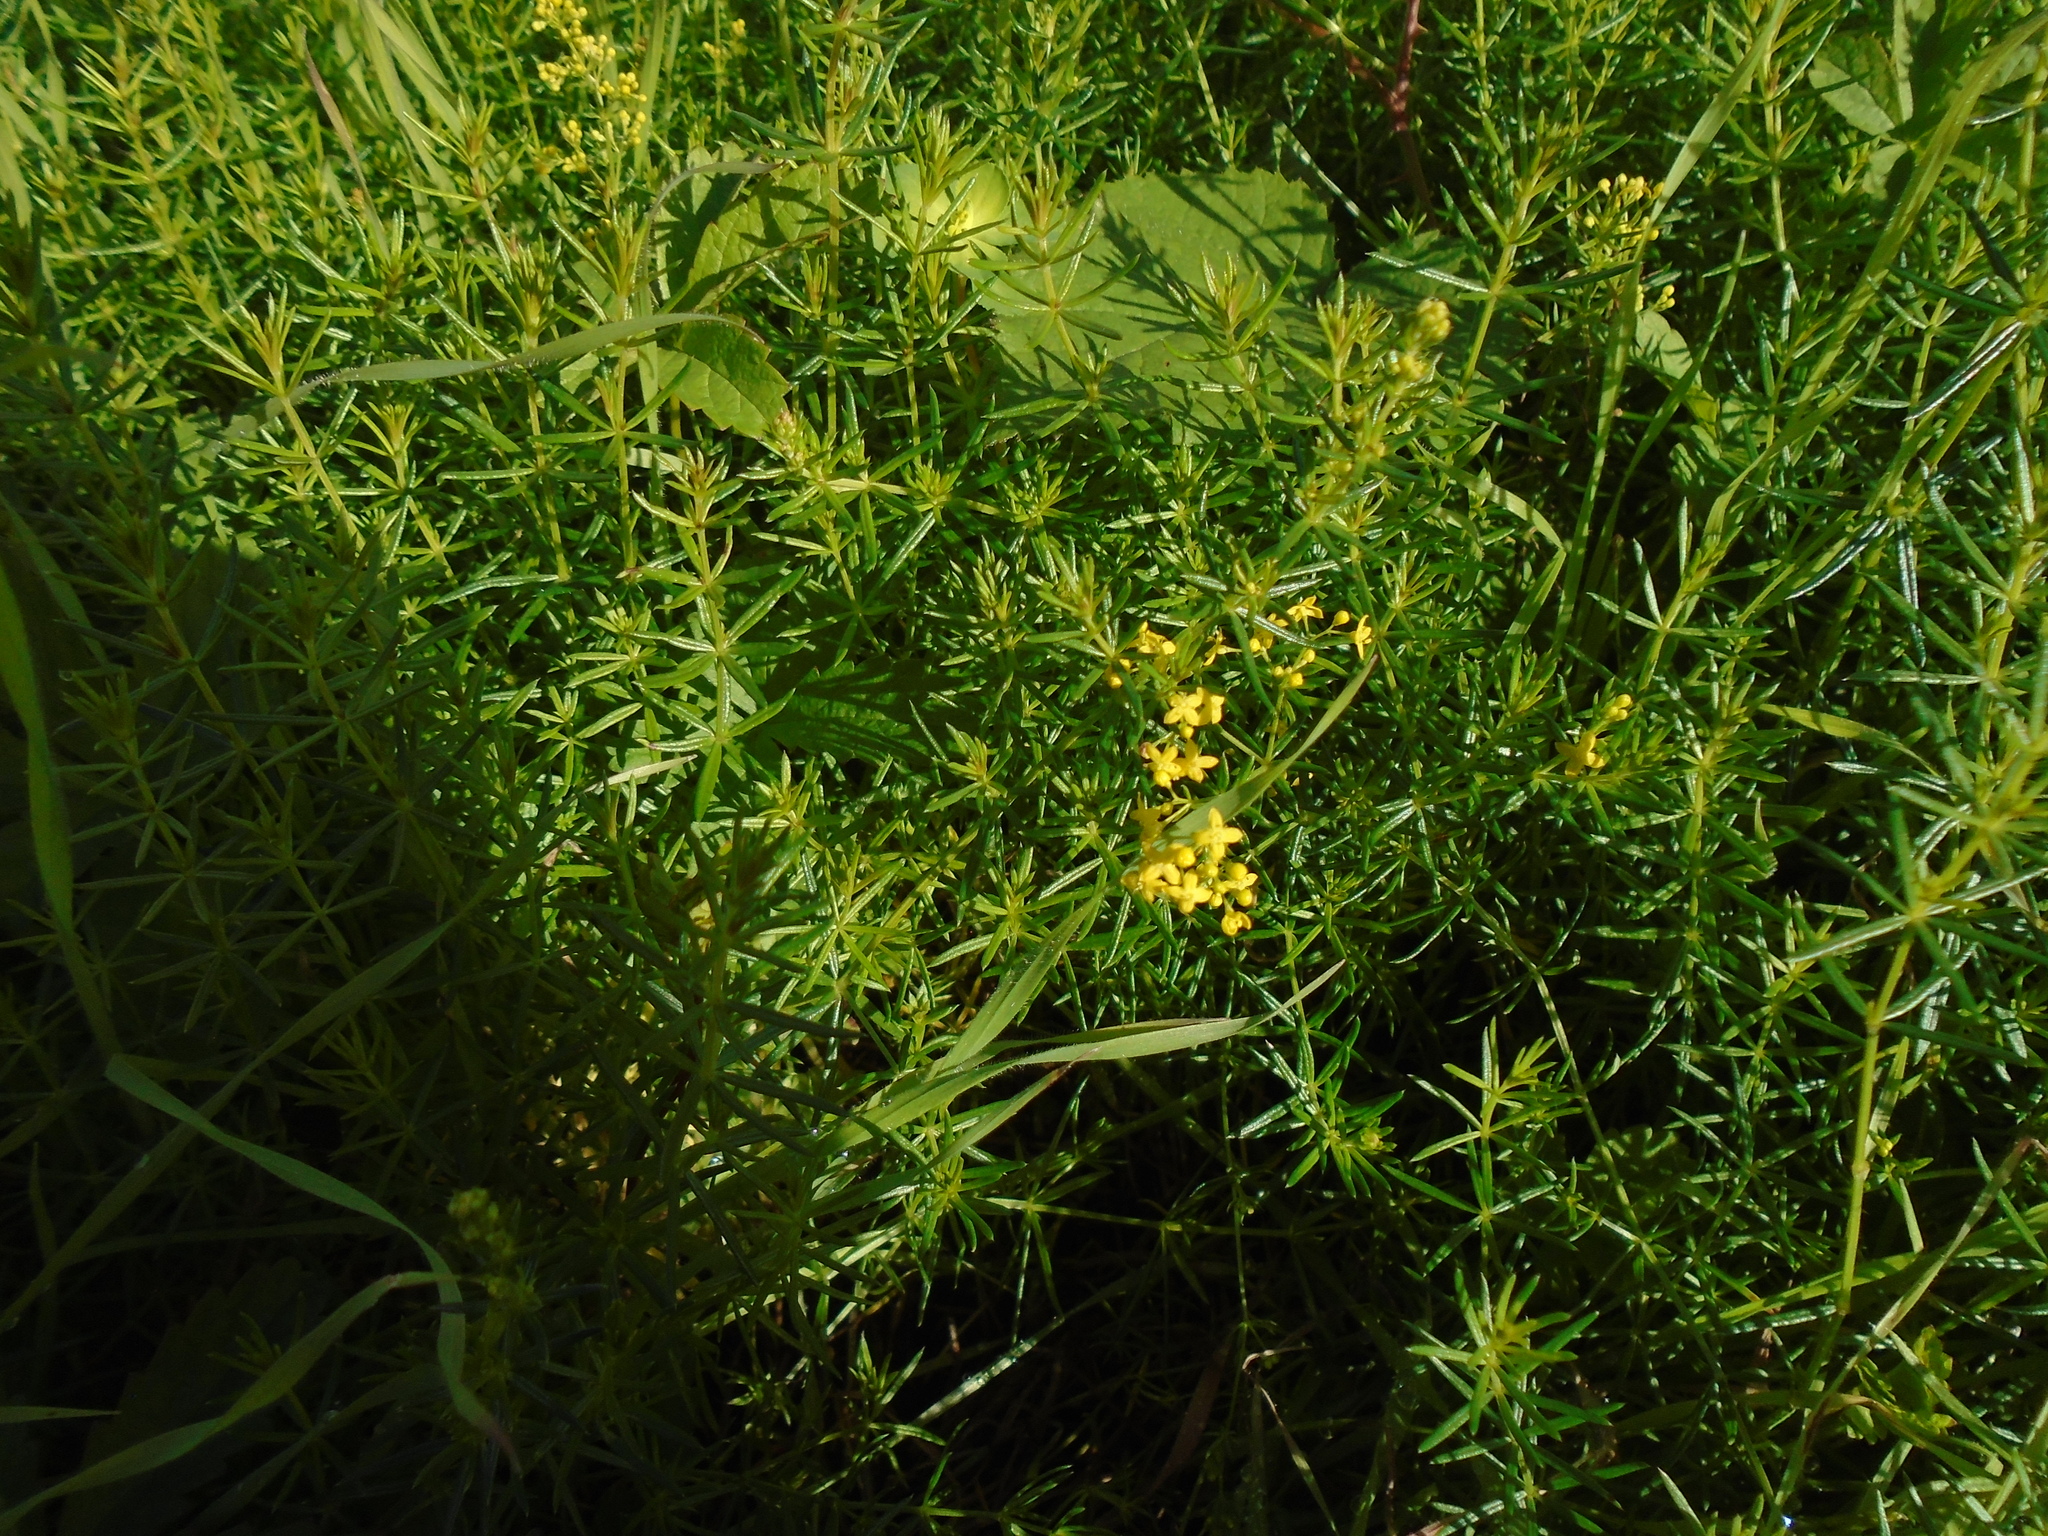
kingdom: Plantae
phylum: Tracheophyta
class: Magnoliopsida
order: Gentianales
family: Rubiaceae
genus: Galium
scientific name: Galium verum
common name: Lady's bedstraw
